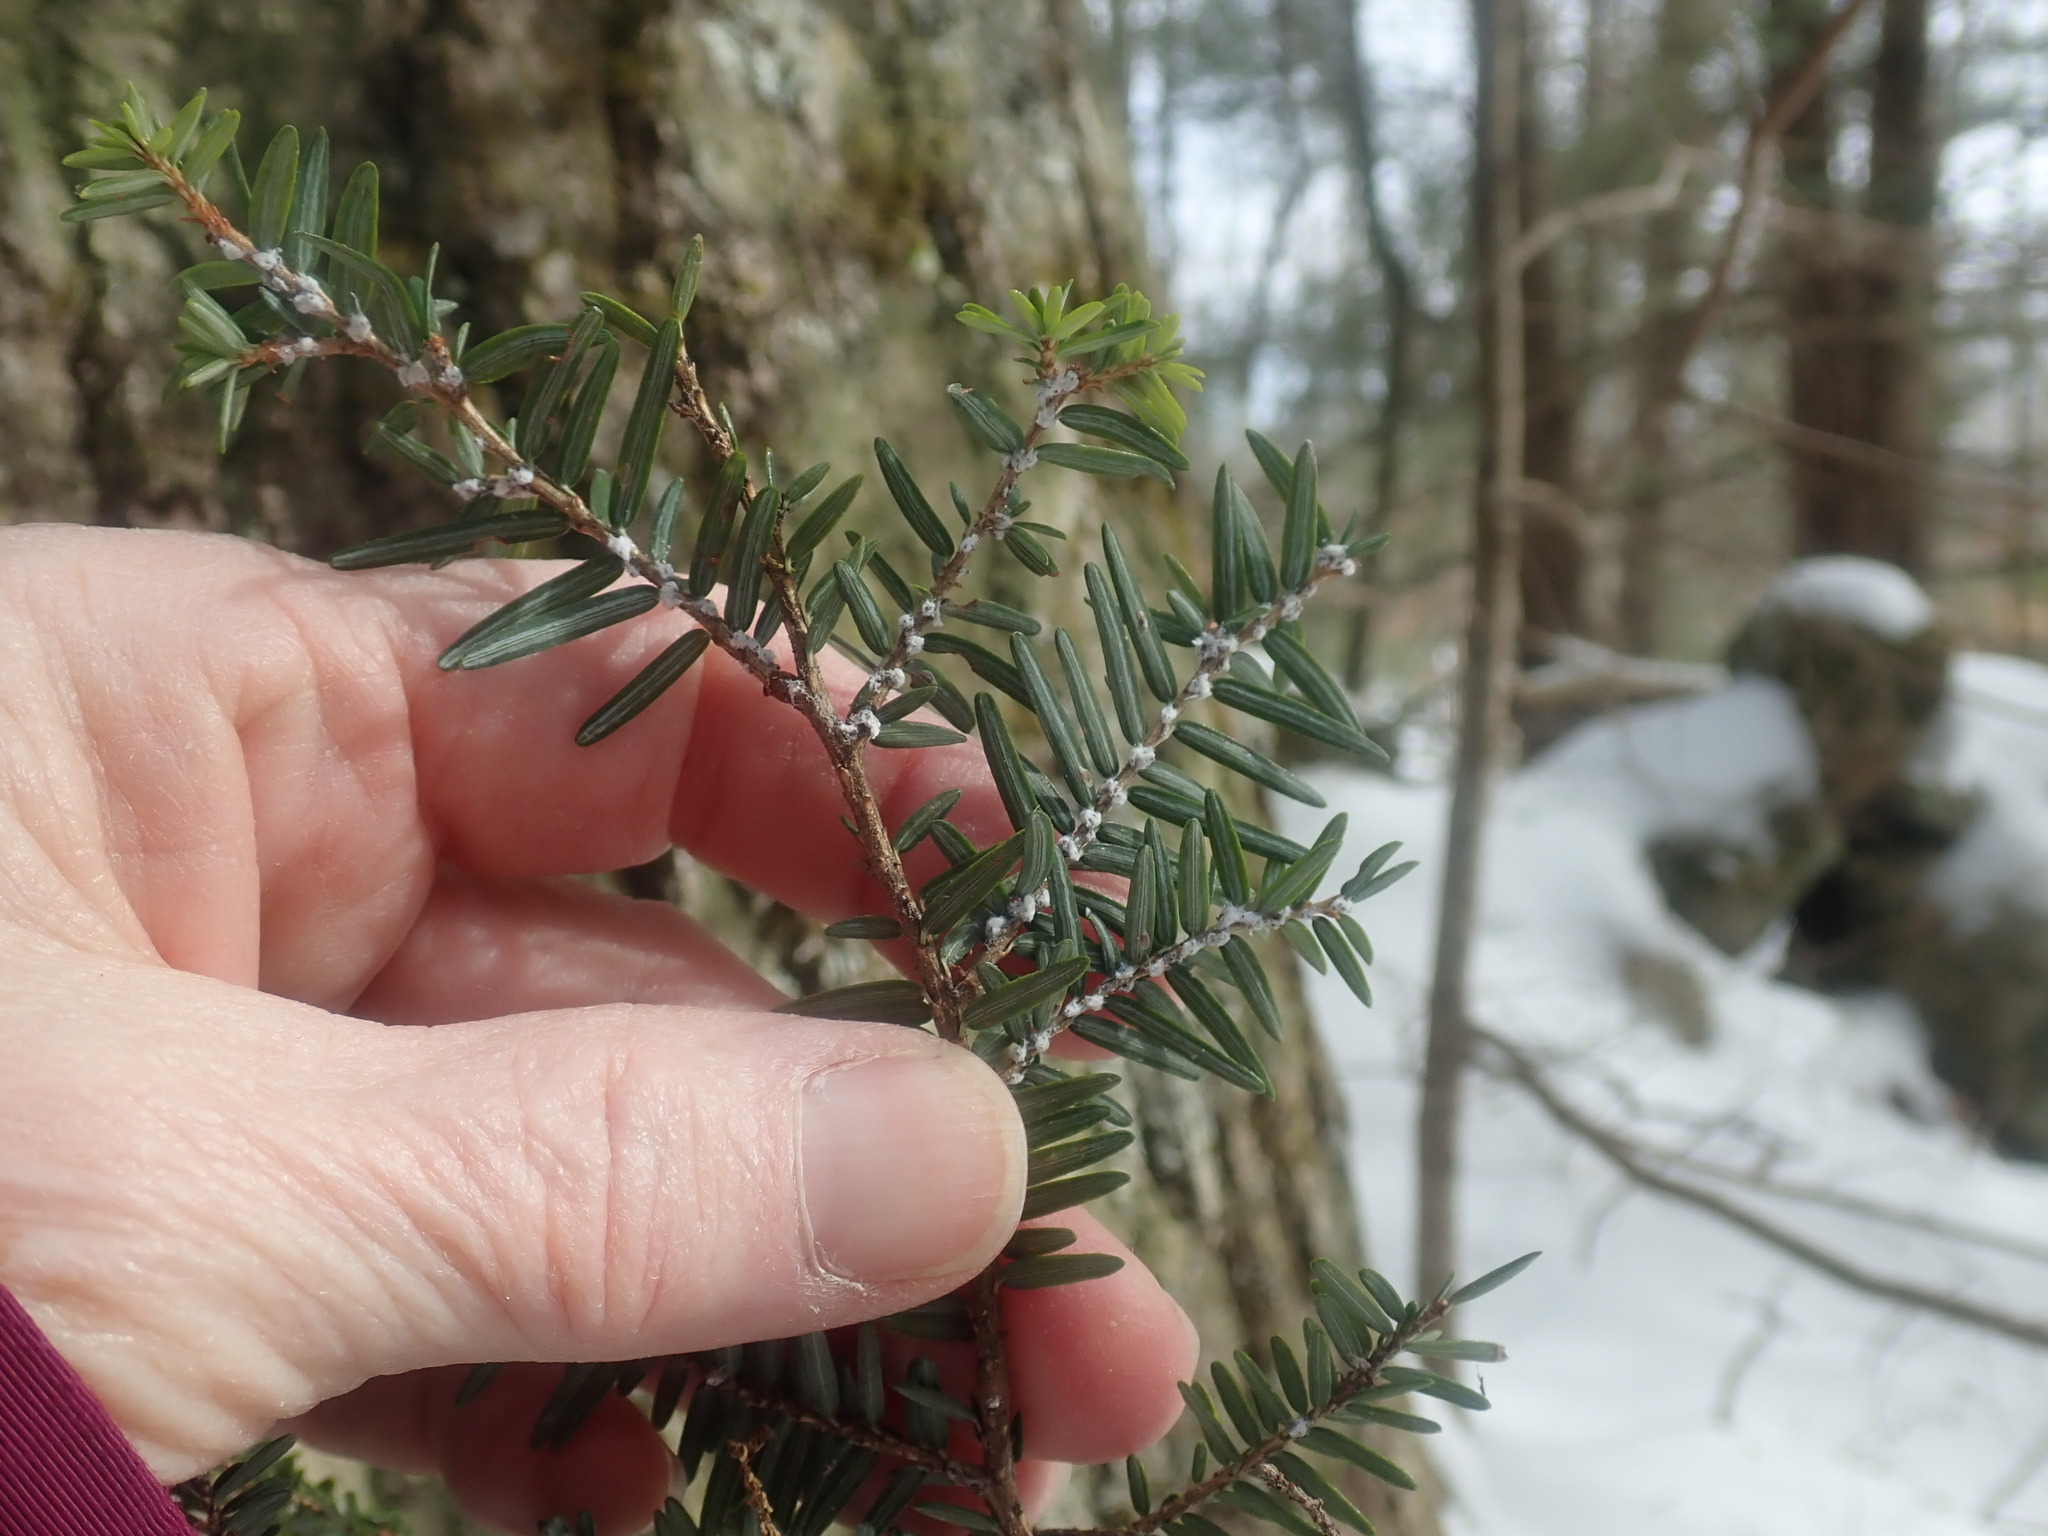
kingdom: Animalia
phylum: Arthropoda
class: Insecta
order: Hemiptera
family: Adelgidae
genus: Adelges
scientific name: Adelges tsugae
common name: Hemlock woolly adelgid
